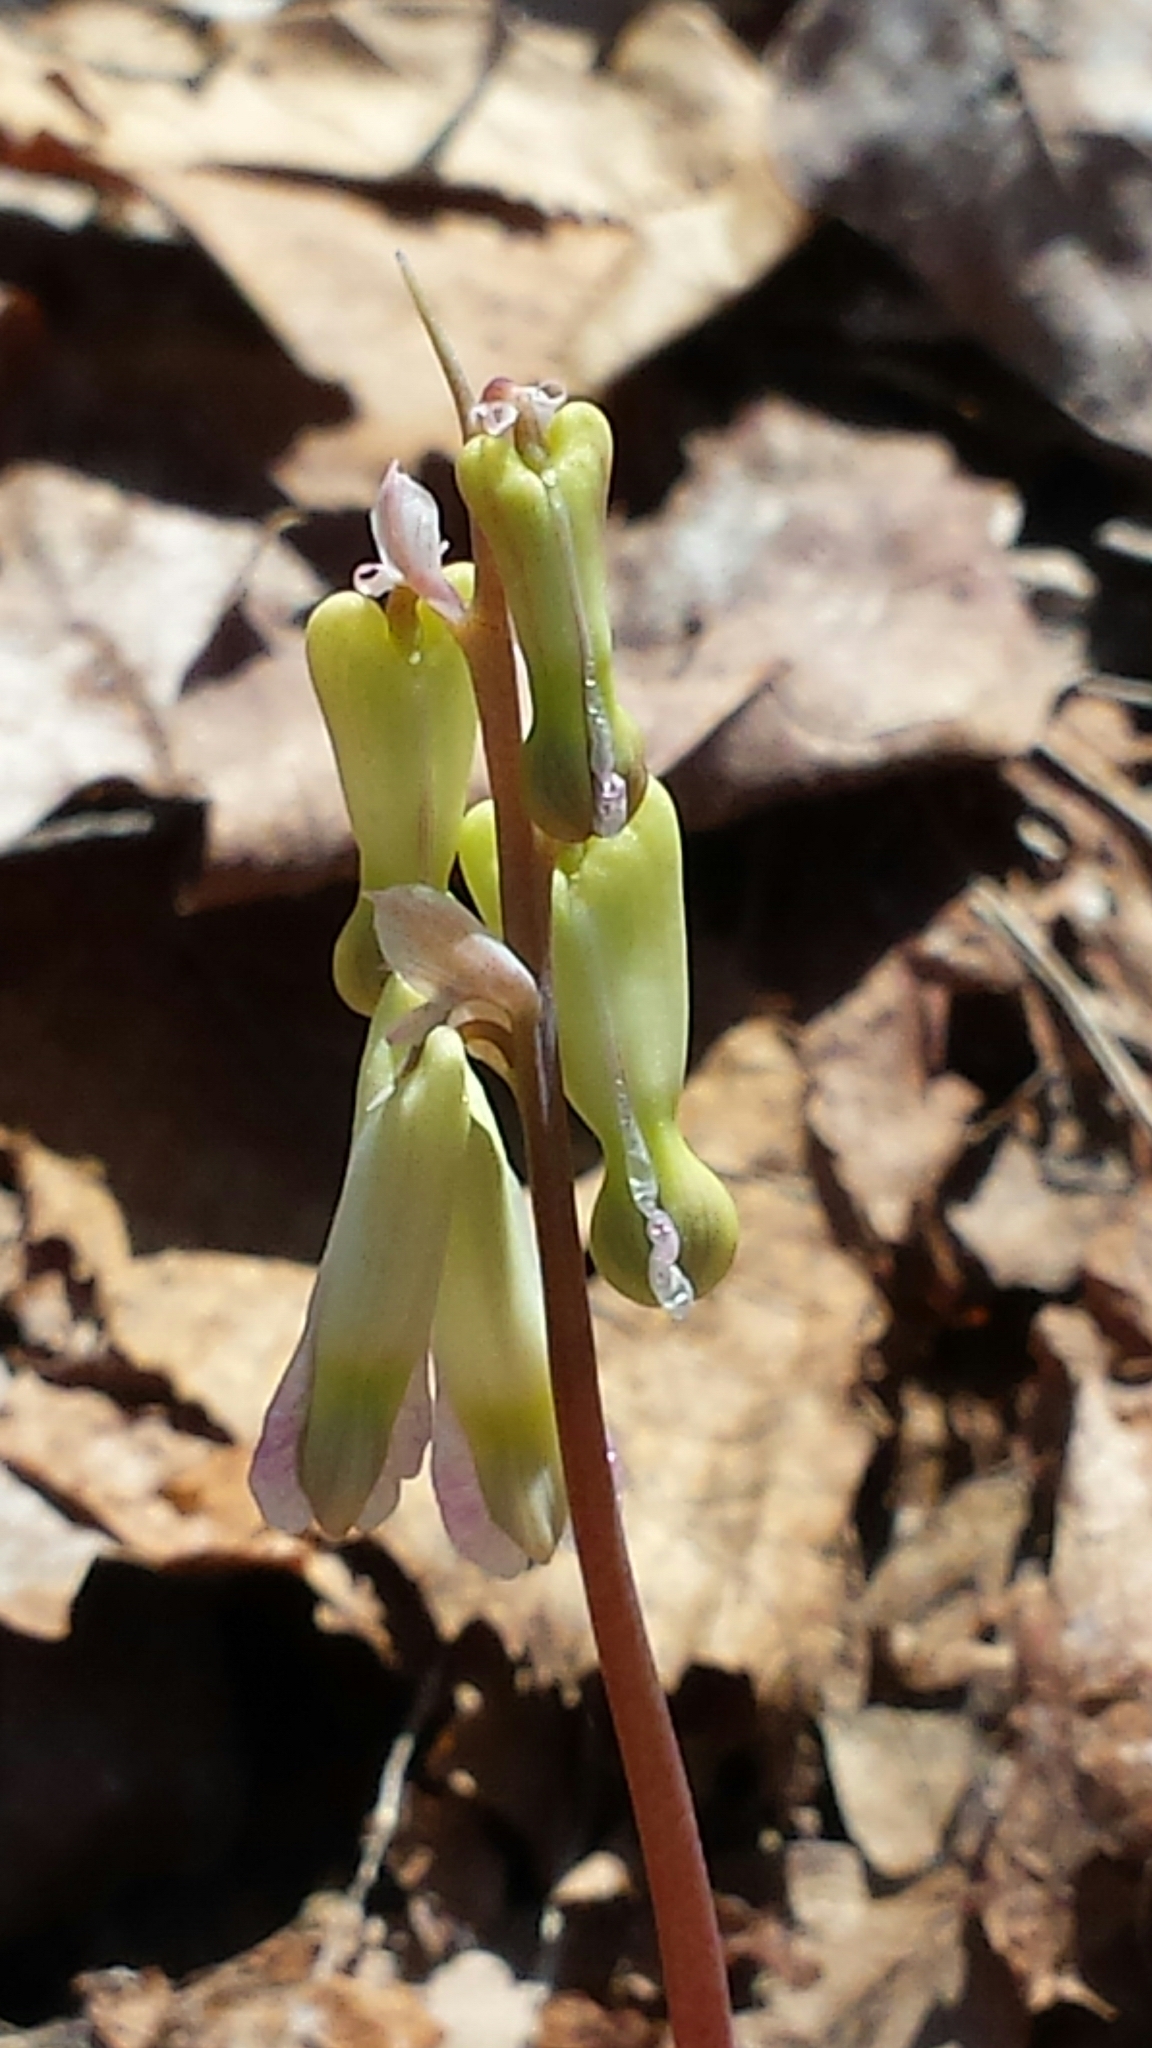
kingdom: Plantae
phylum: Tracheophyta
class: Magnoliopsida
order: Ranunculales
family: Papaveraceae
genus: Dicentra
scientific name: Dicentra canadensis
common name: Squirrel-corn
